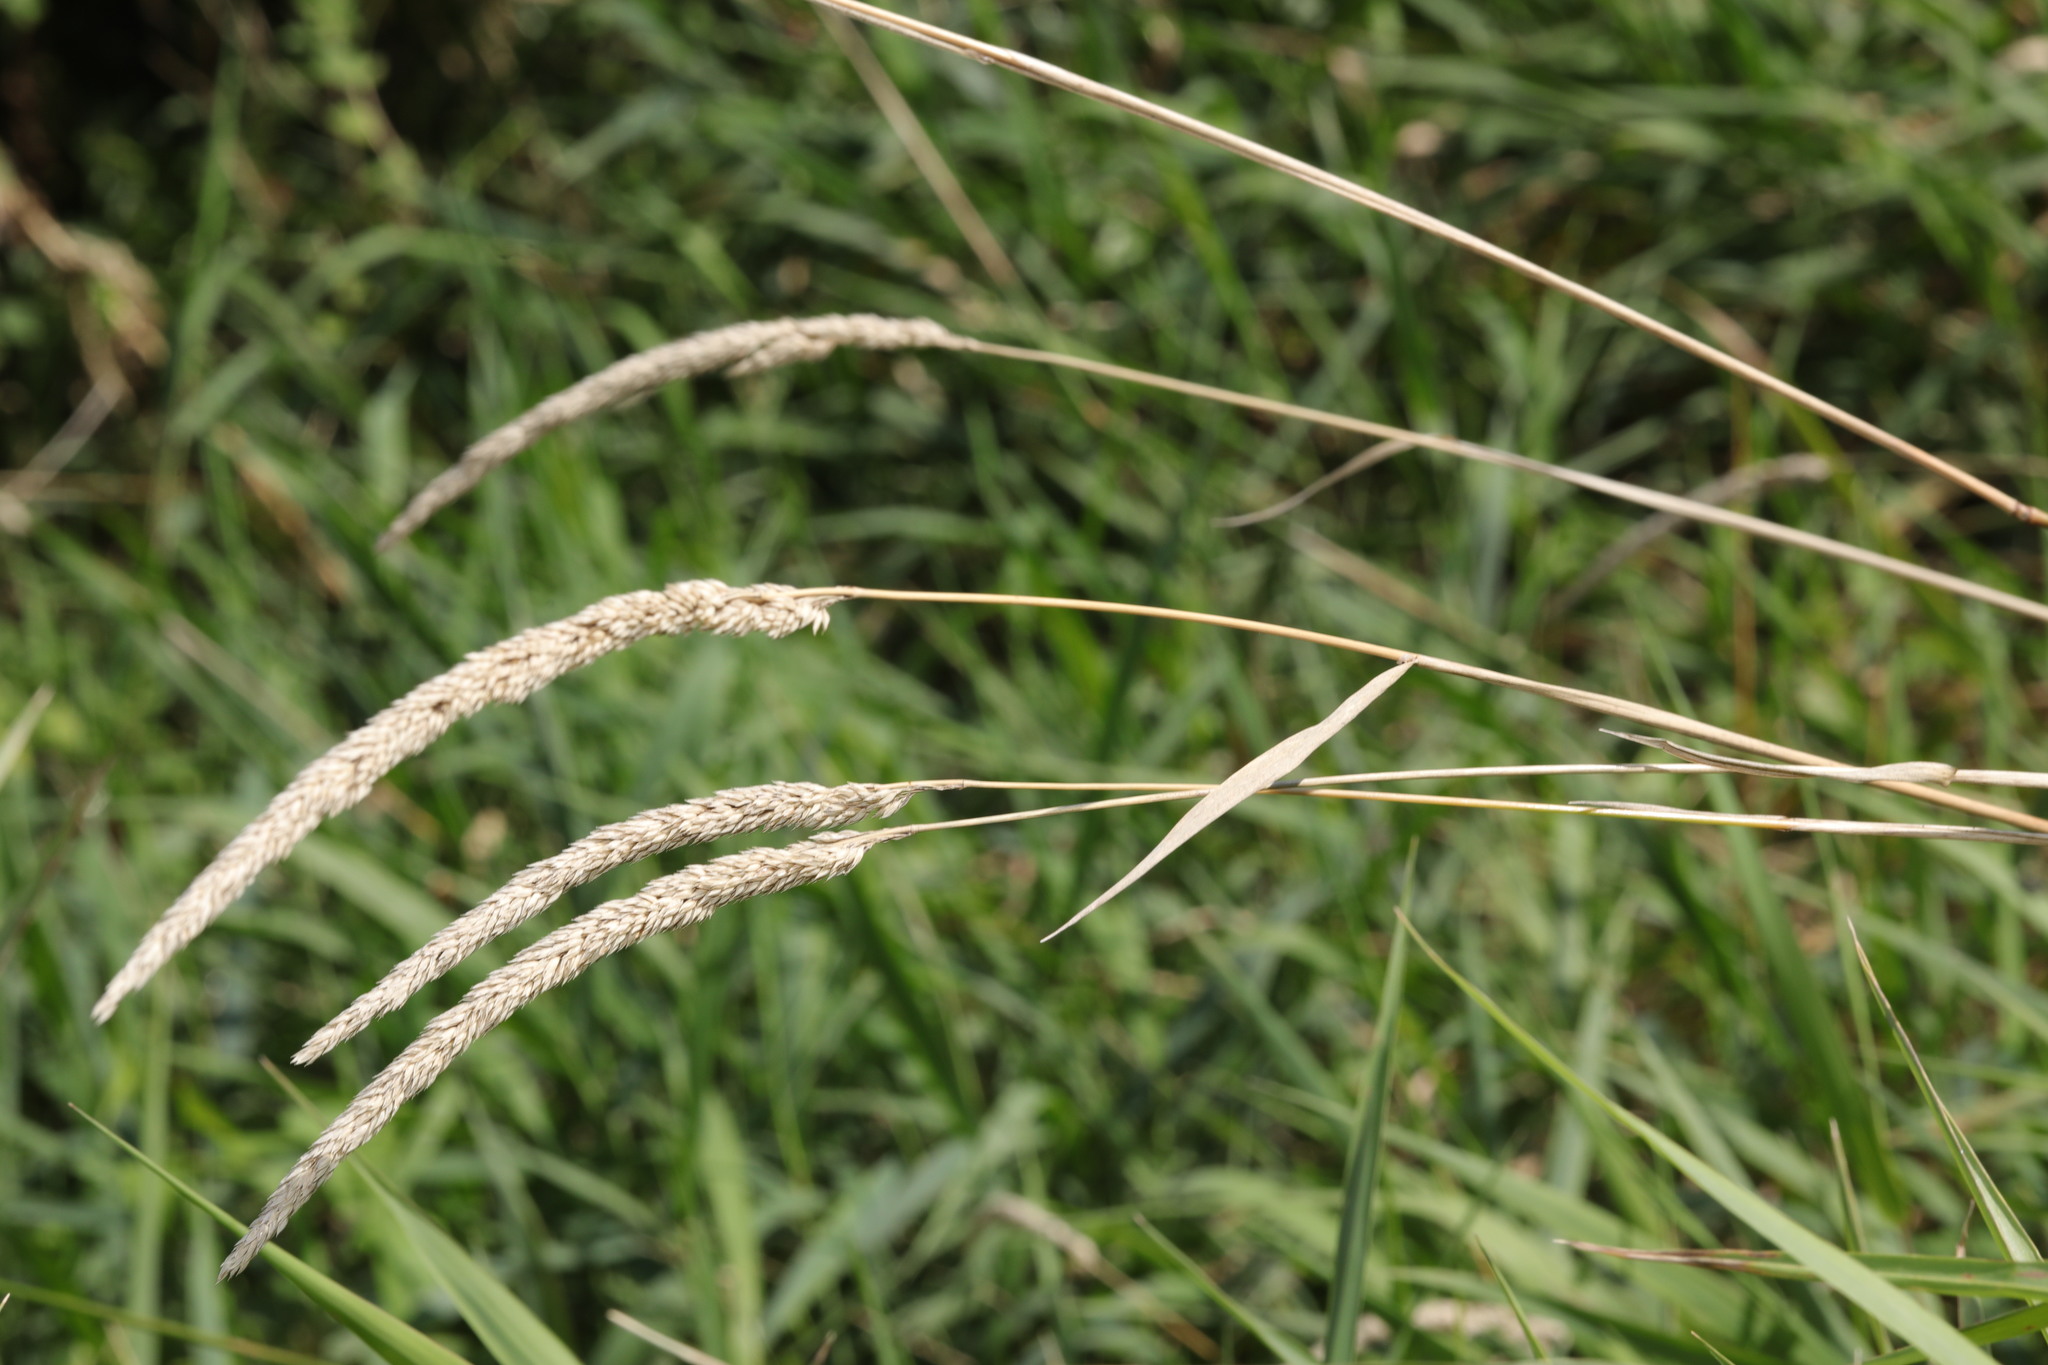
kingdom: Plantae
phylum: Tracheophyta
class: Liliopsida
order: Poales
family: Poaceae
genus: Phalaris
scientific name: Phalaris arundinacea
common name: Reed canary-grass
